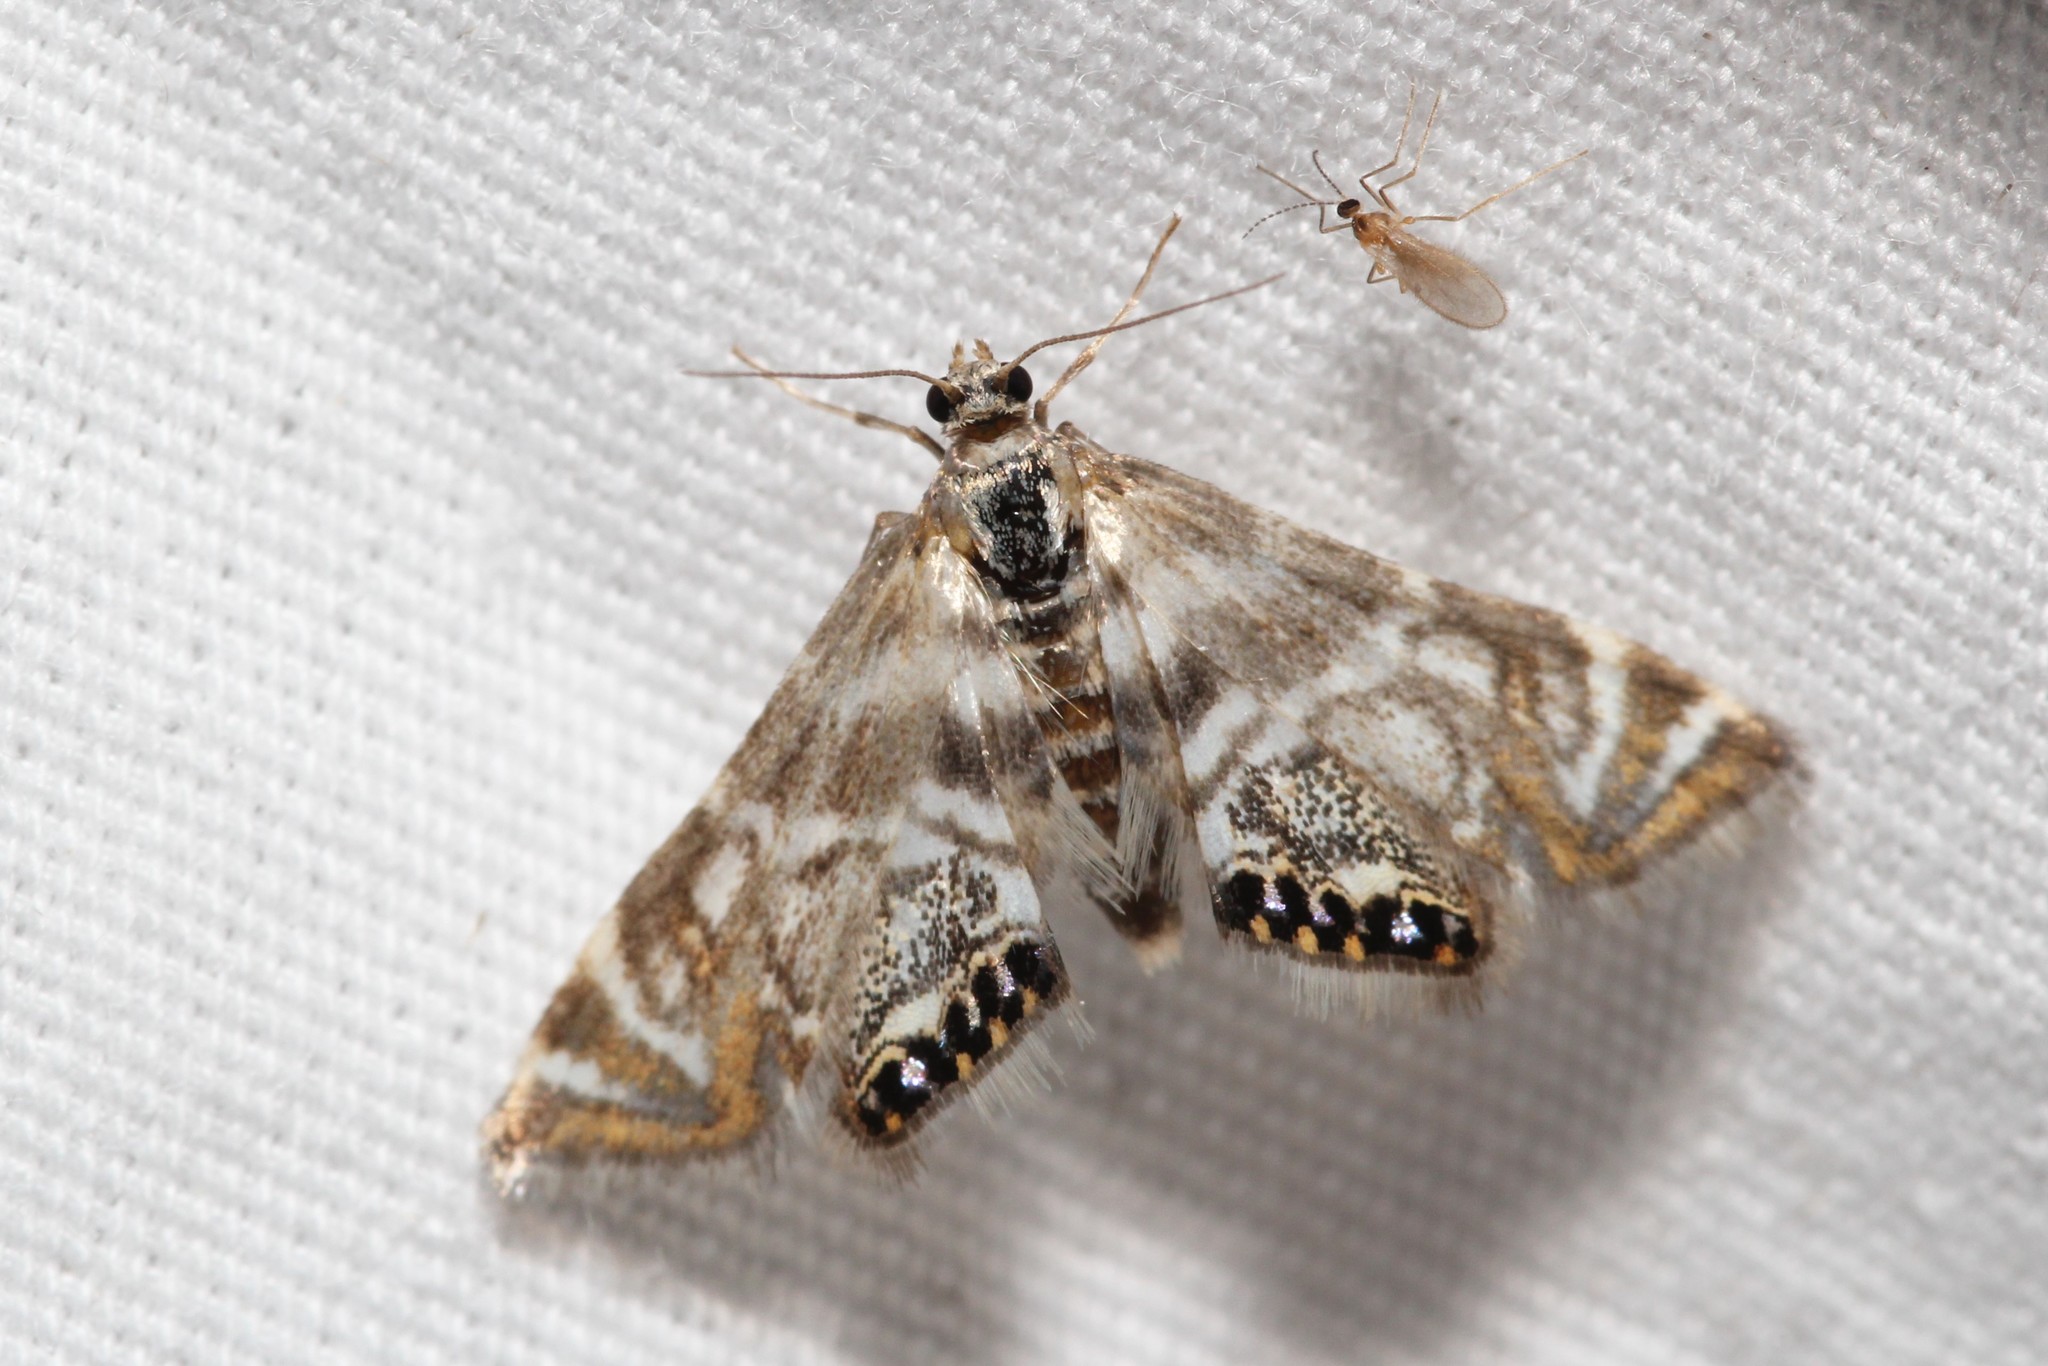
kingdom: Animalia
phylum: Arthropoda
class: Insecta
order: Lepidoptera
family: Crambidae
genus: Petrophila
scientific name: Petrophila canadensis
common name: Canadian petrophila
